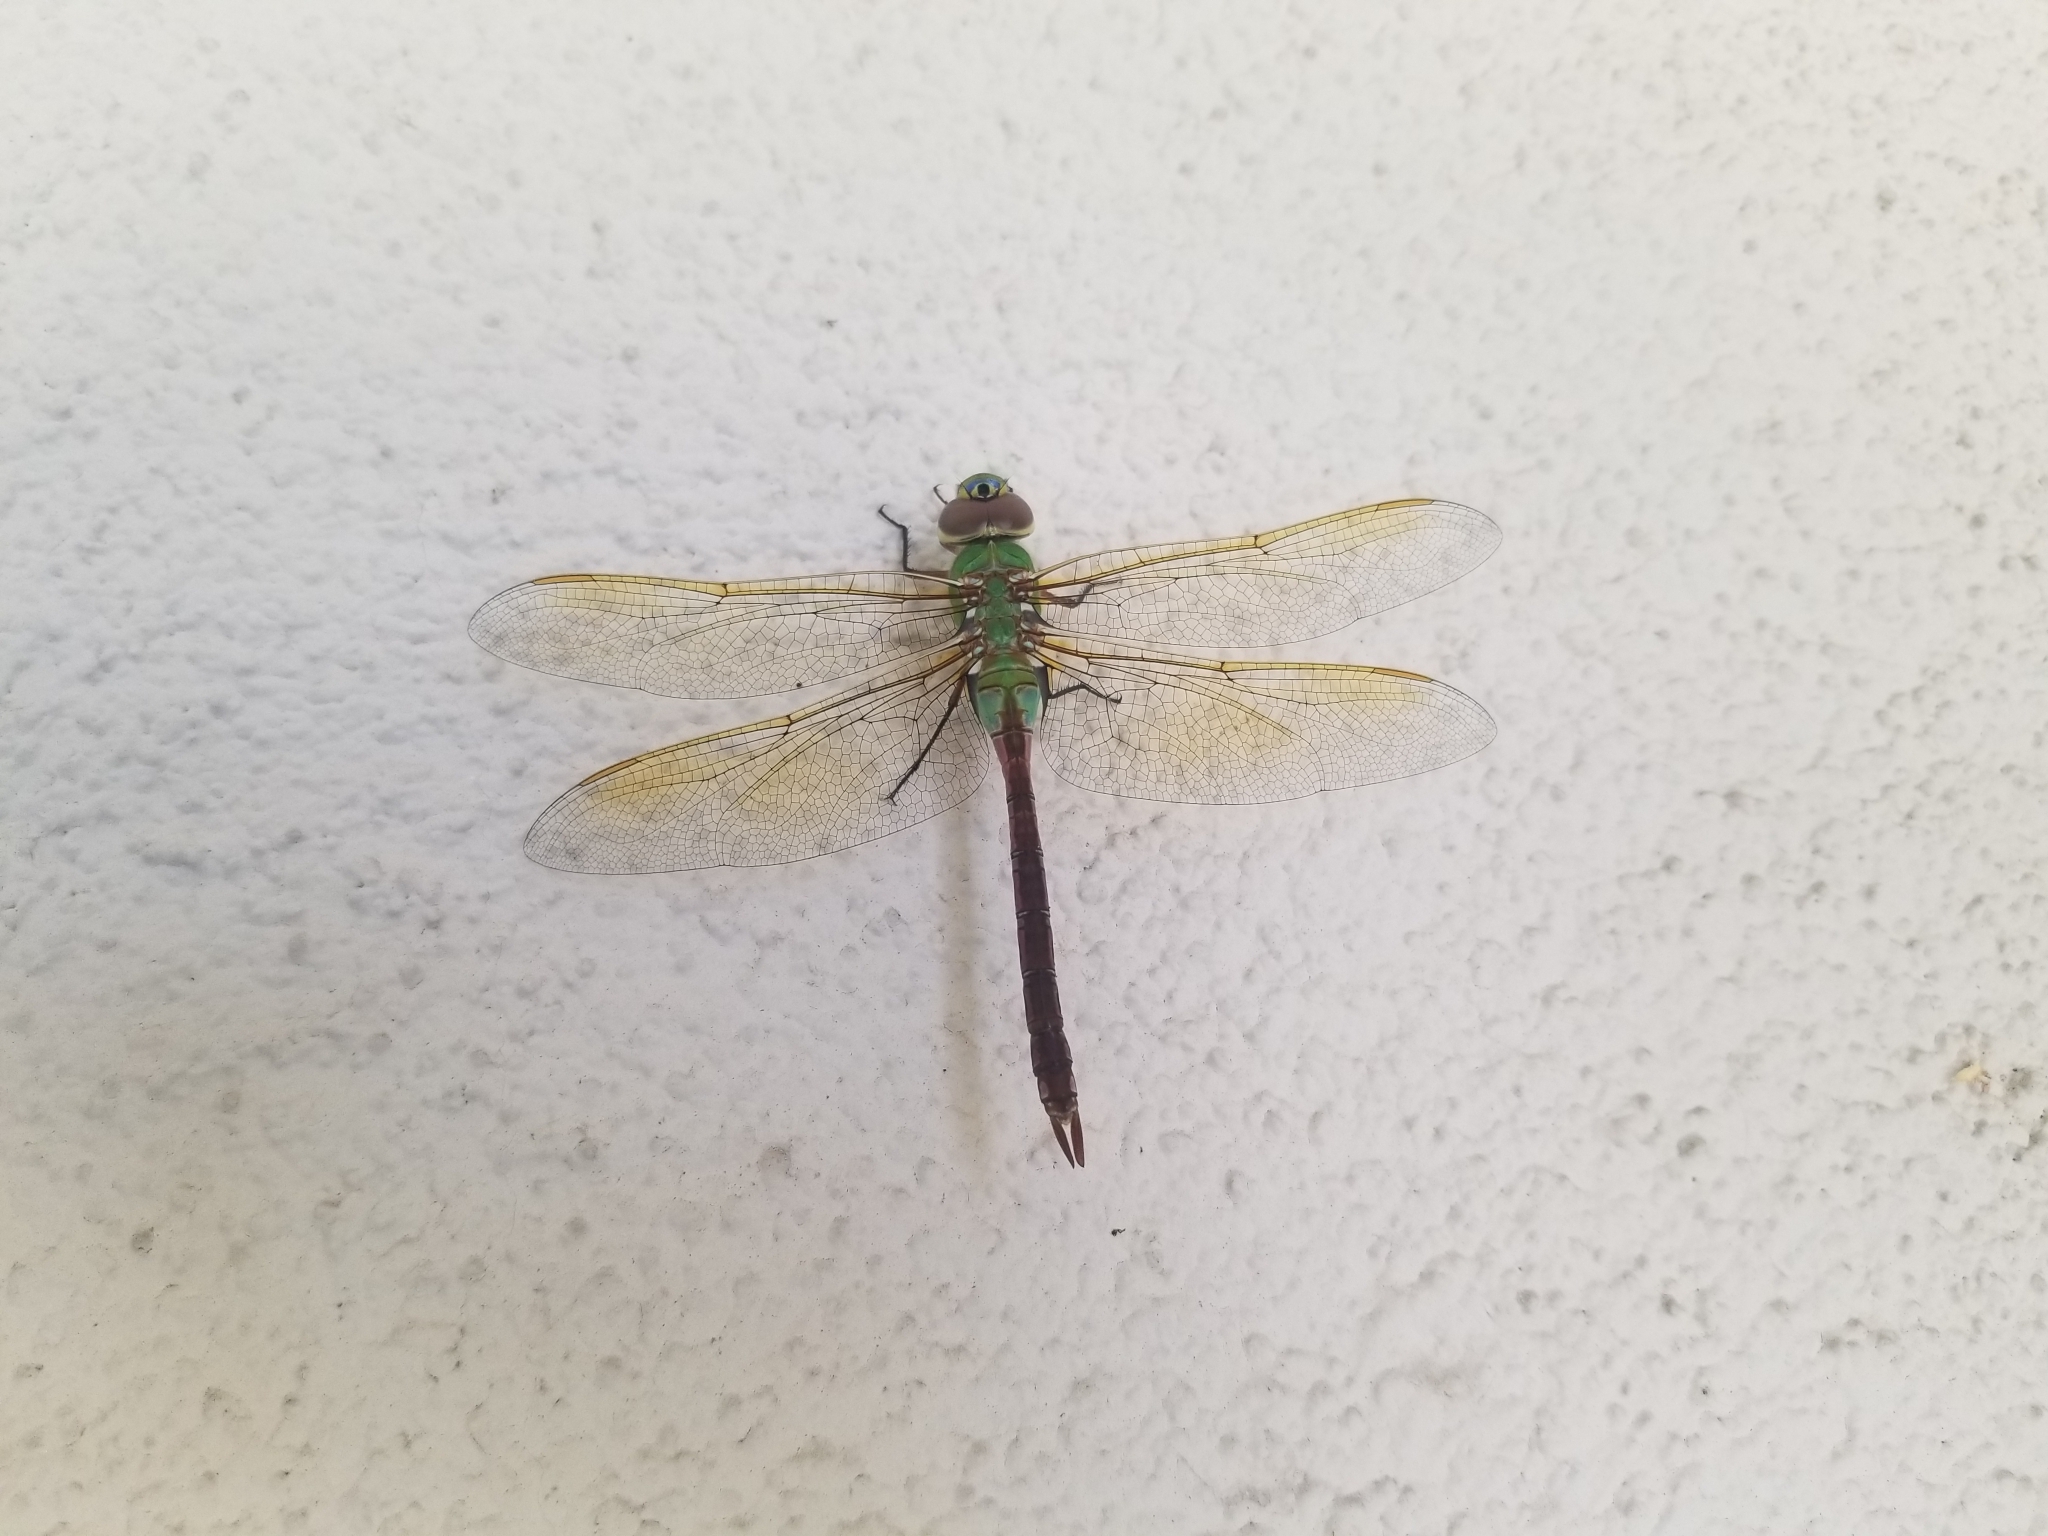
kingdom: Animalia
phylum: Arthropoda
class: Insecta
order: Odonata
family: Aeshnidae
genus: Anax
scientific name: Anax junius
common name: Common green darner
